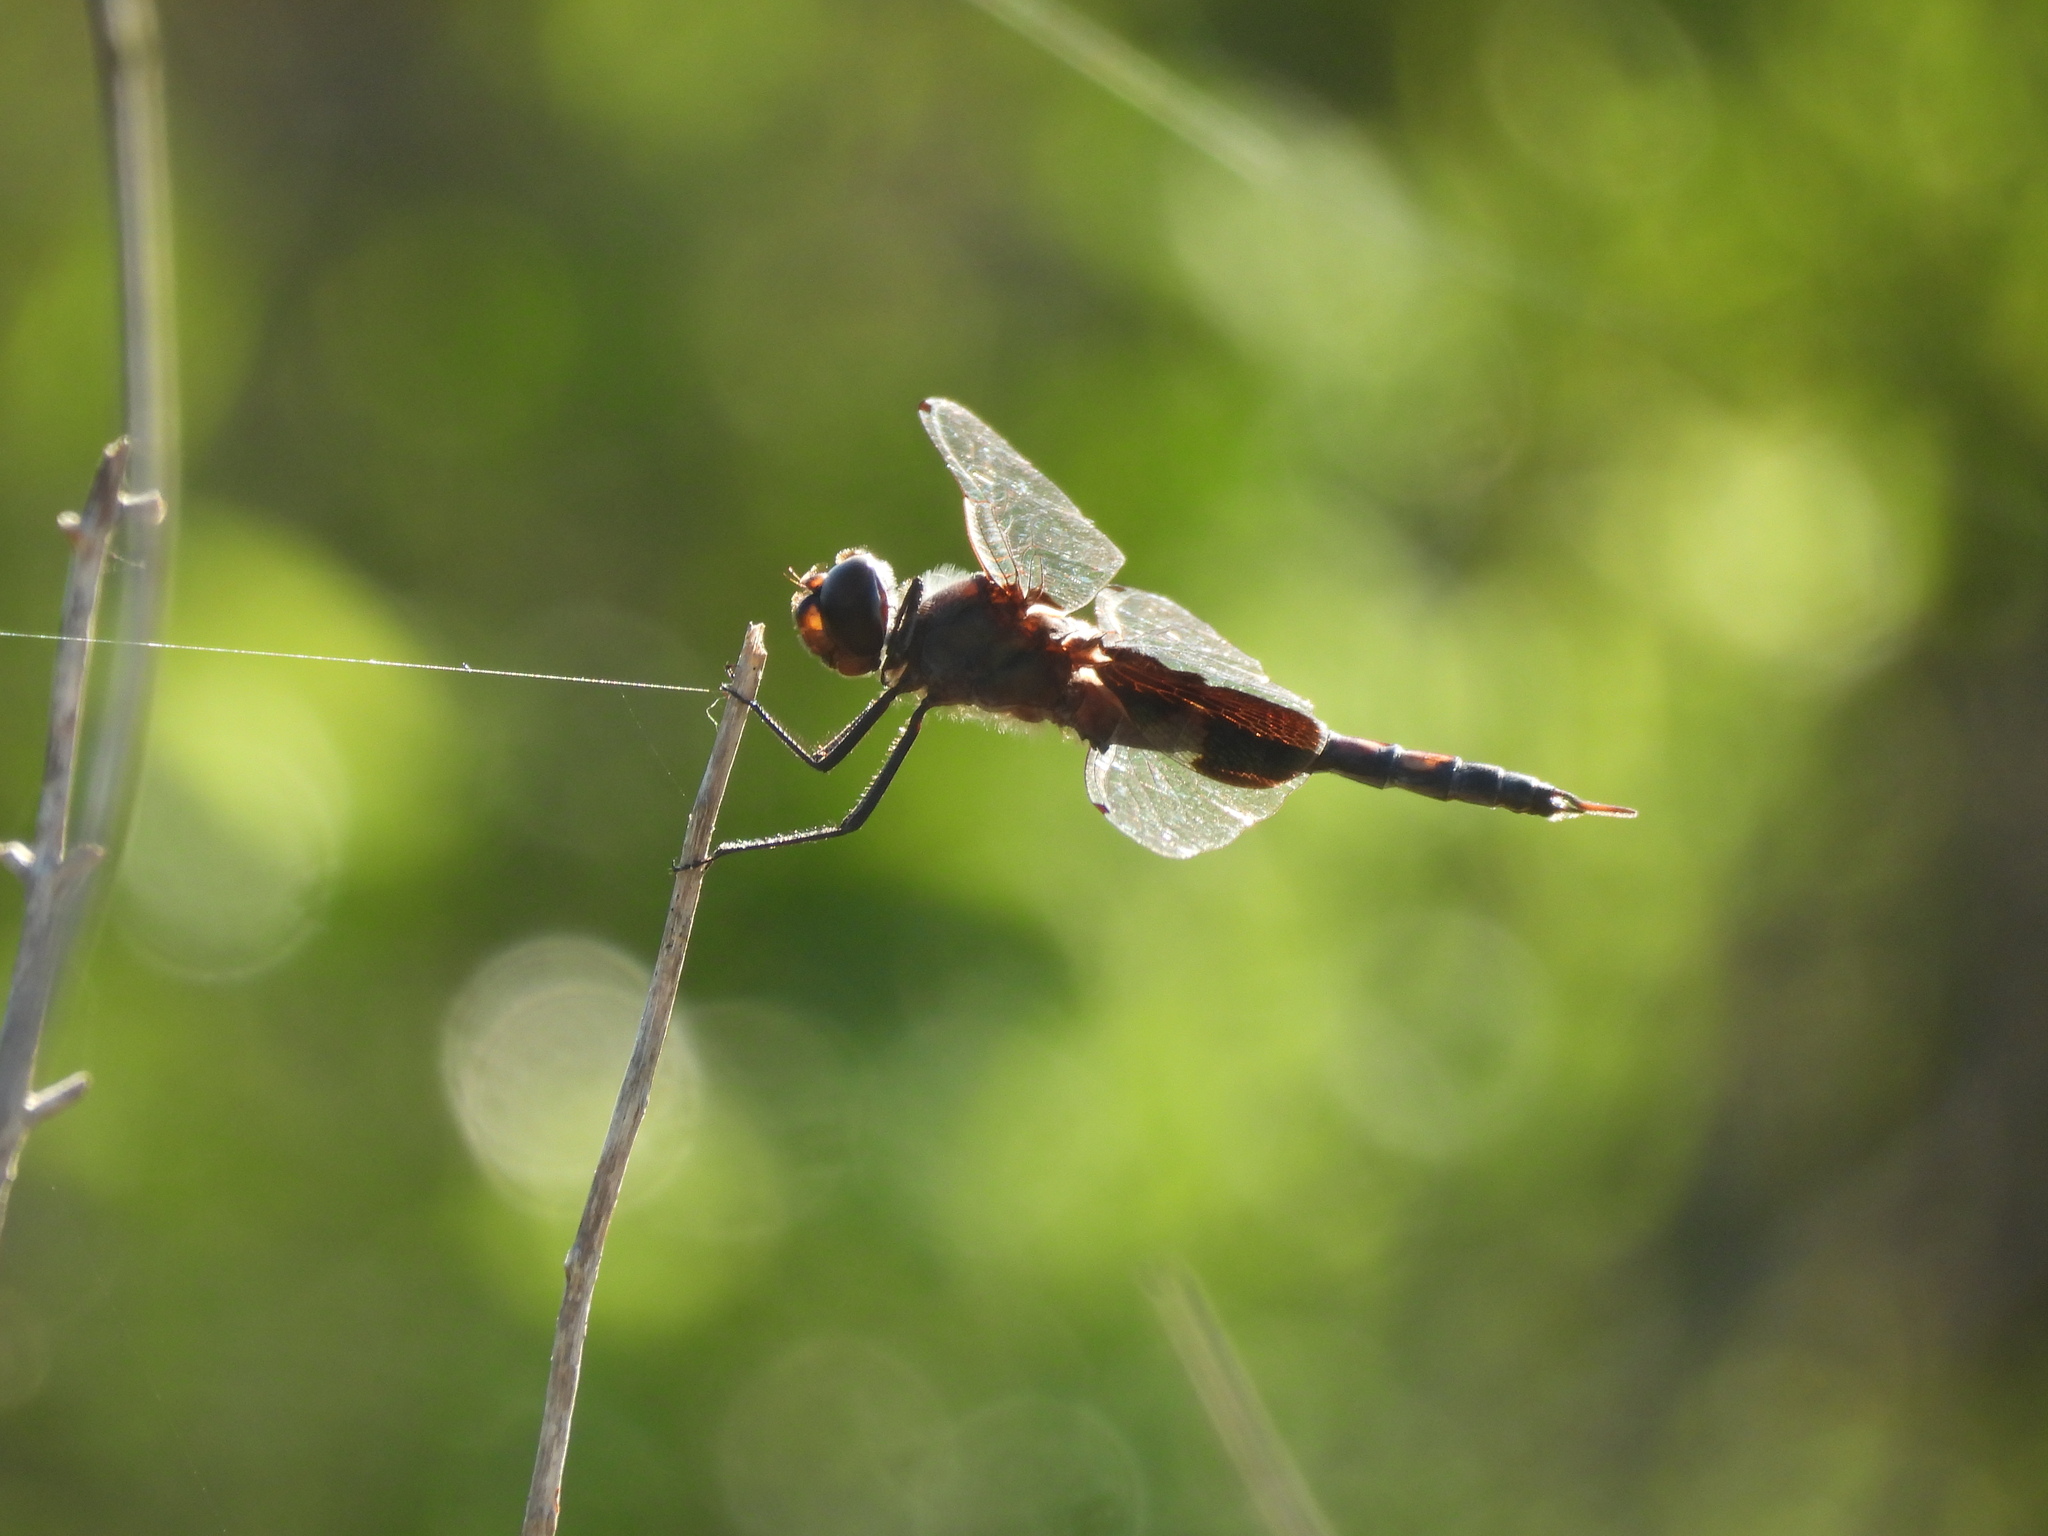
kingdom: Animalia
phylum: Arthropoda
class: Insecta
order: Odonata
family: Libellulidae
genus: Tramea
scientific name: Tramea insularis
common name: Antillean saddlebags
